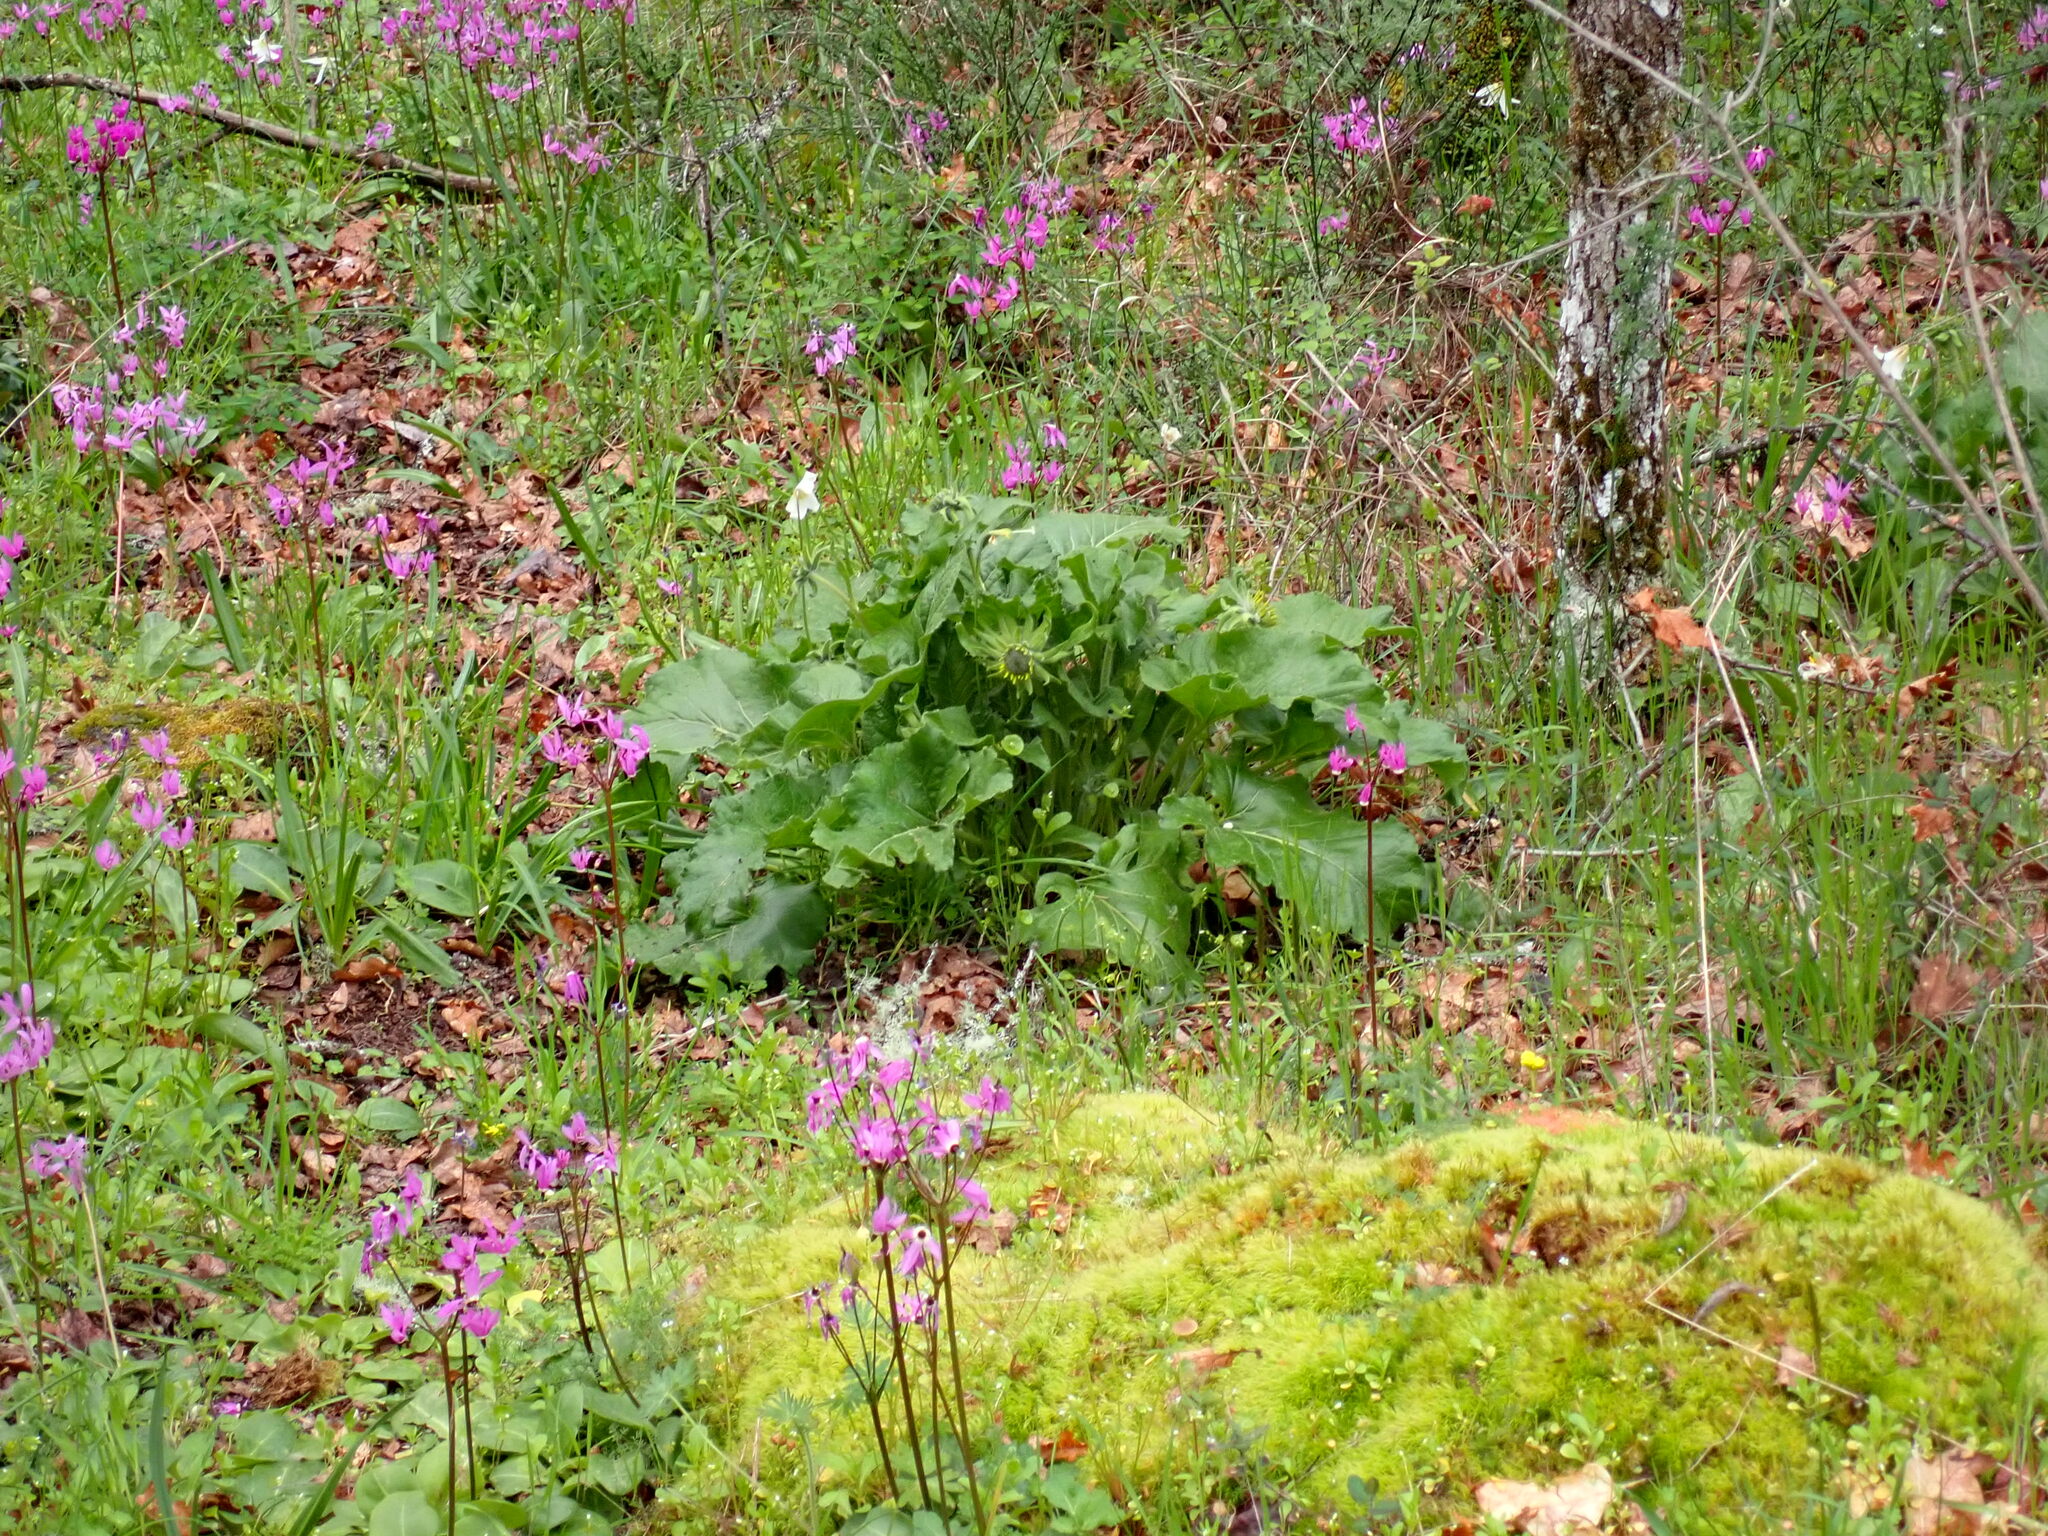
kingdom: Plantae
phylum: Tracheophyta
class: Magnoliopsida
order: Asterales
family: Asteraceae
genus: Balsamorhiza
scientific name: Balsamorhiza deltoidea
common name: Deltoid balsamroot
